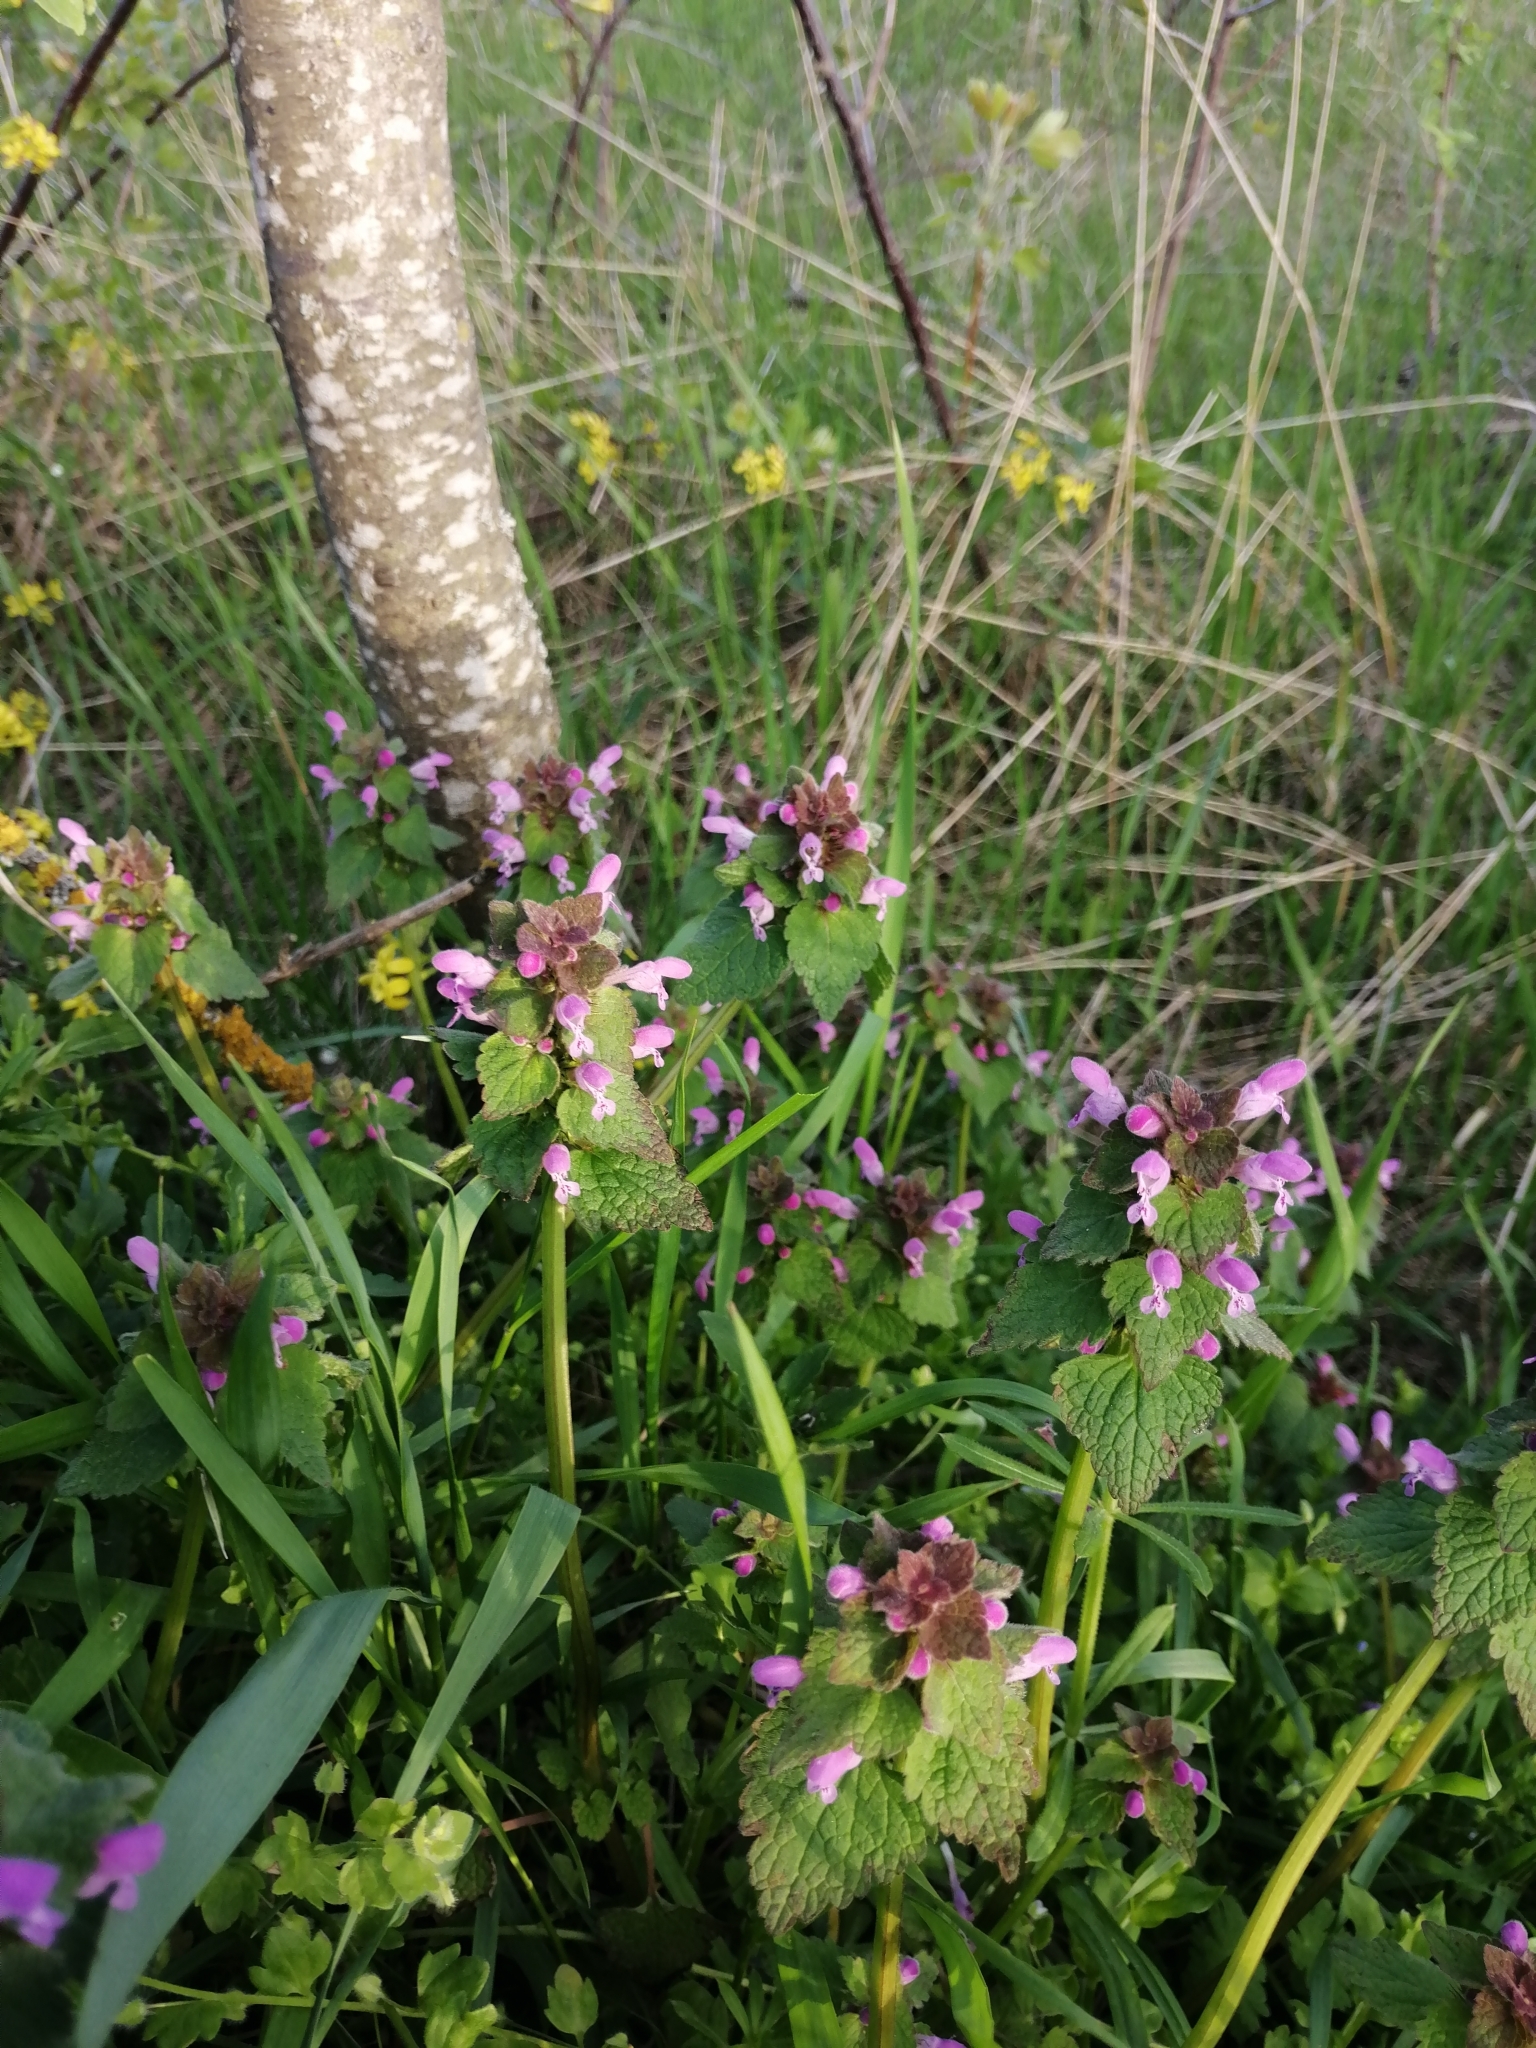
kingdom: Plantae
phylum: Tracheophyta
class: Magnoliopsida
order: Lamiales
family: Lamiaceae
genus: Lamium
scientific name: Lamium purpureum
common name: Red dead-nettle
